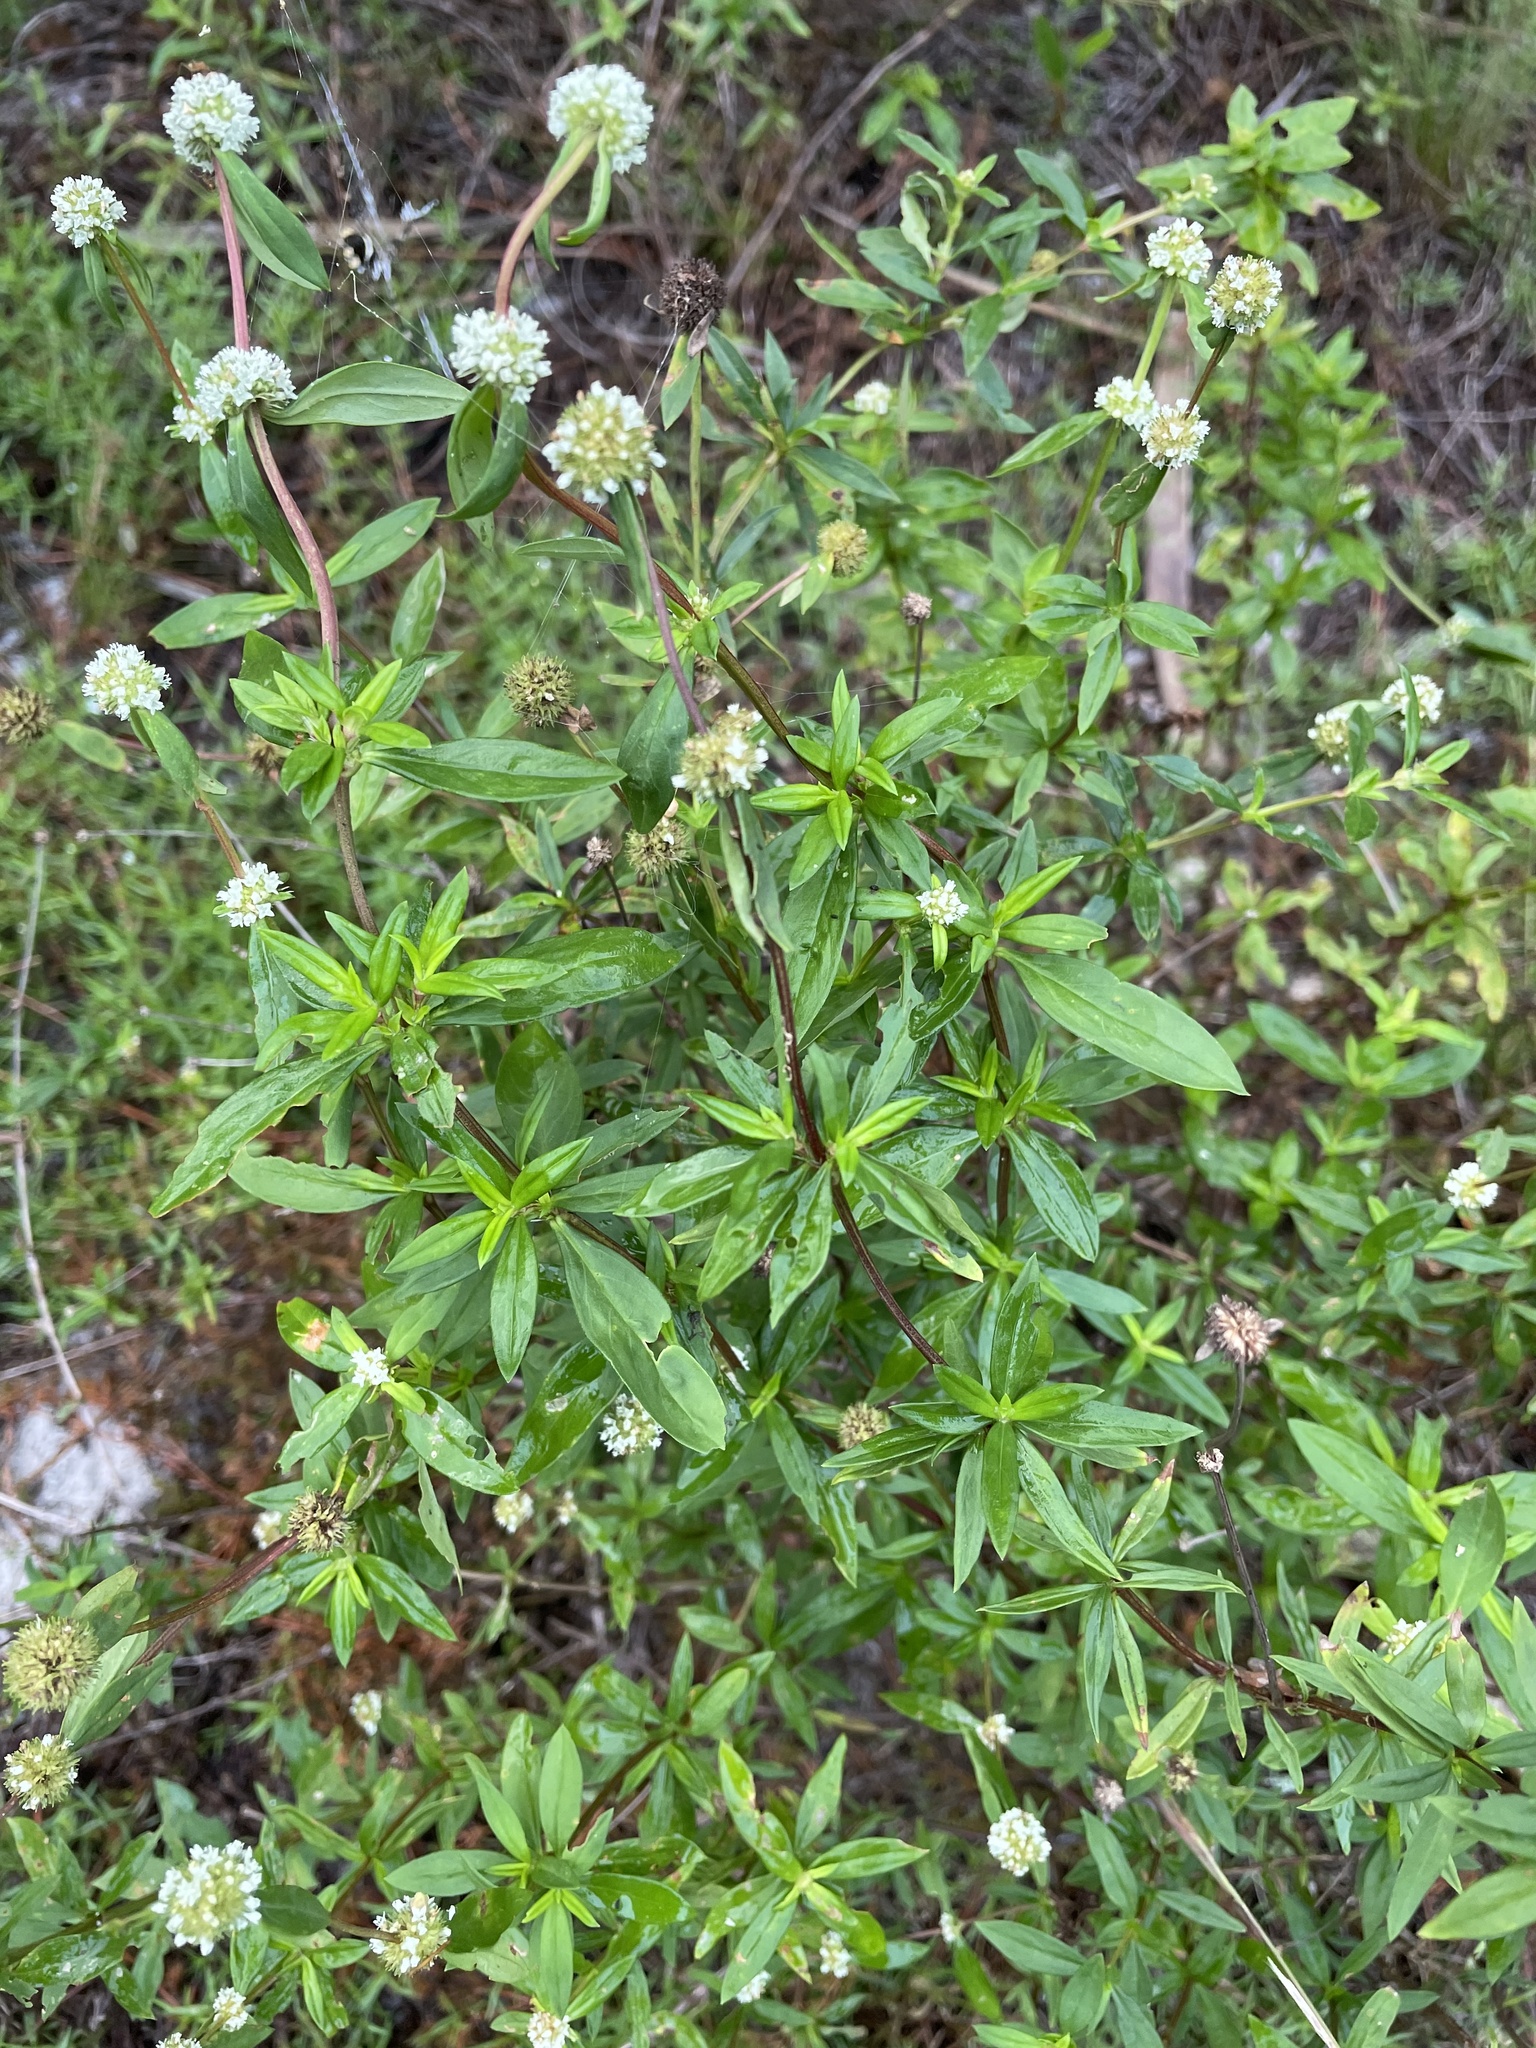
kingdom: Plantae
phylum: Tracheophyta
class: Magnoliopsida
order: Gentianales
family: Rubiaceae
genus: Spermacoce
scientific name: Spermacoce verticillata
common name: Shrubby false buttonweed
